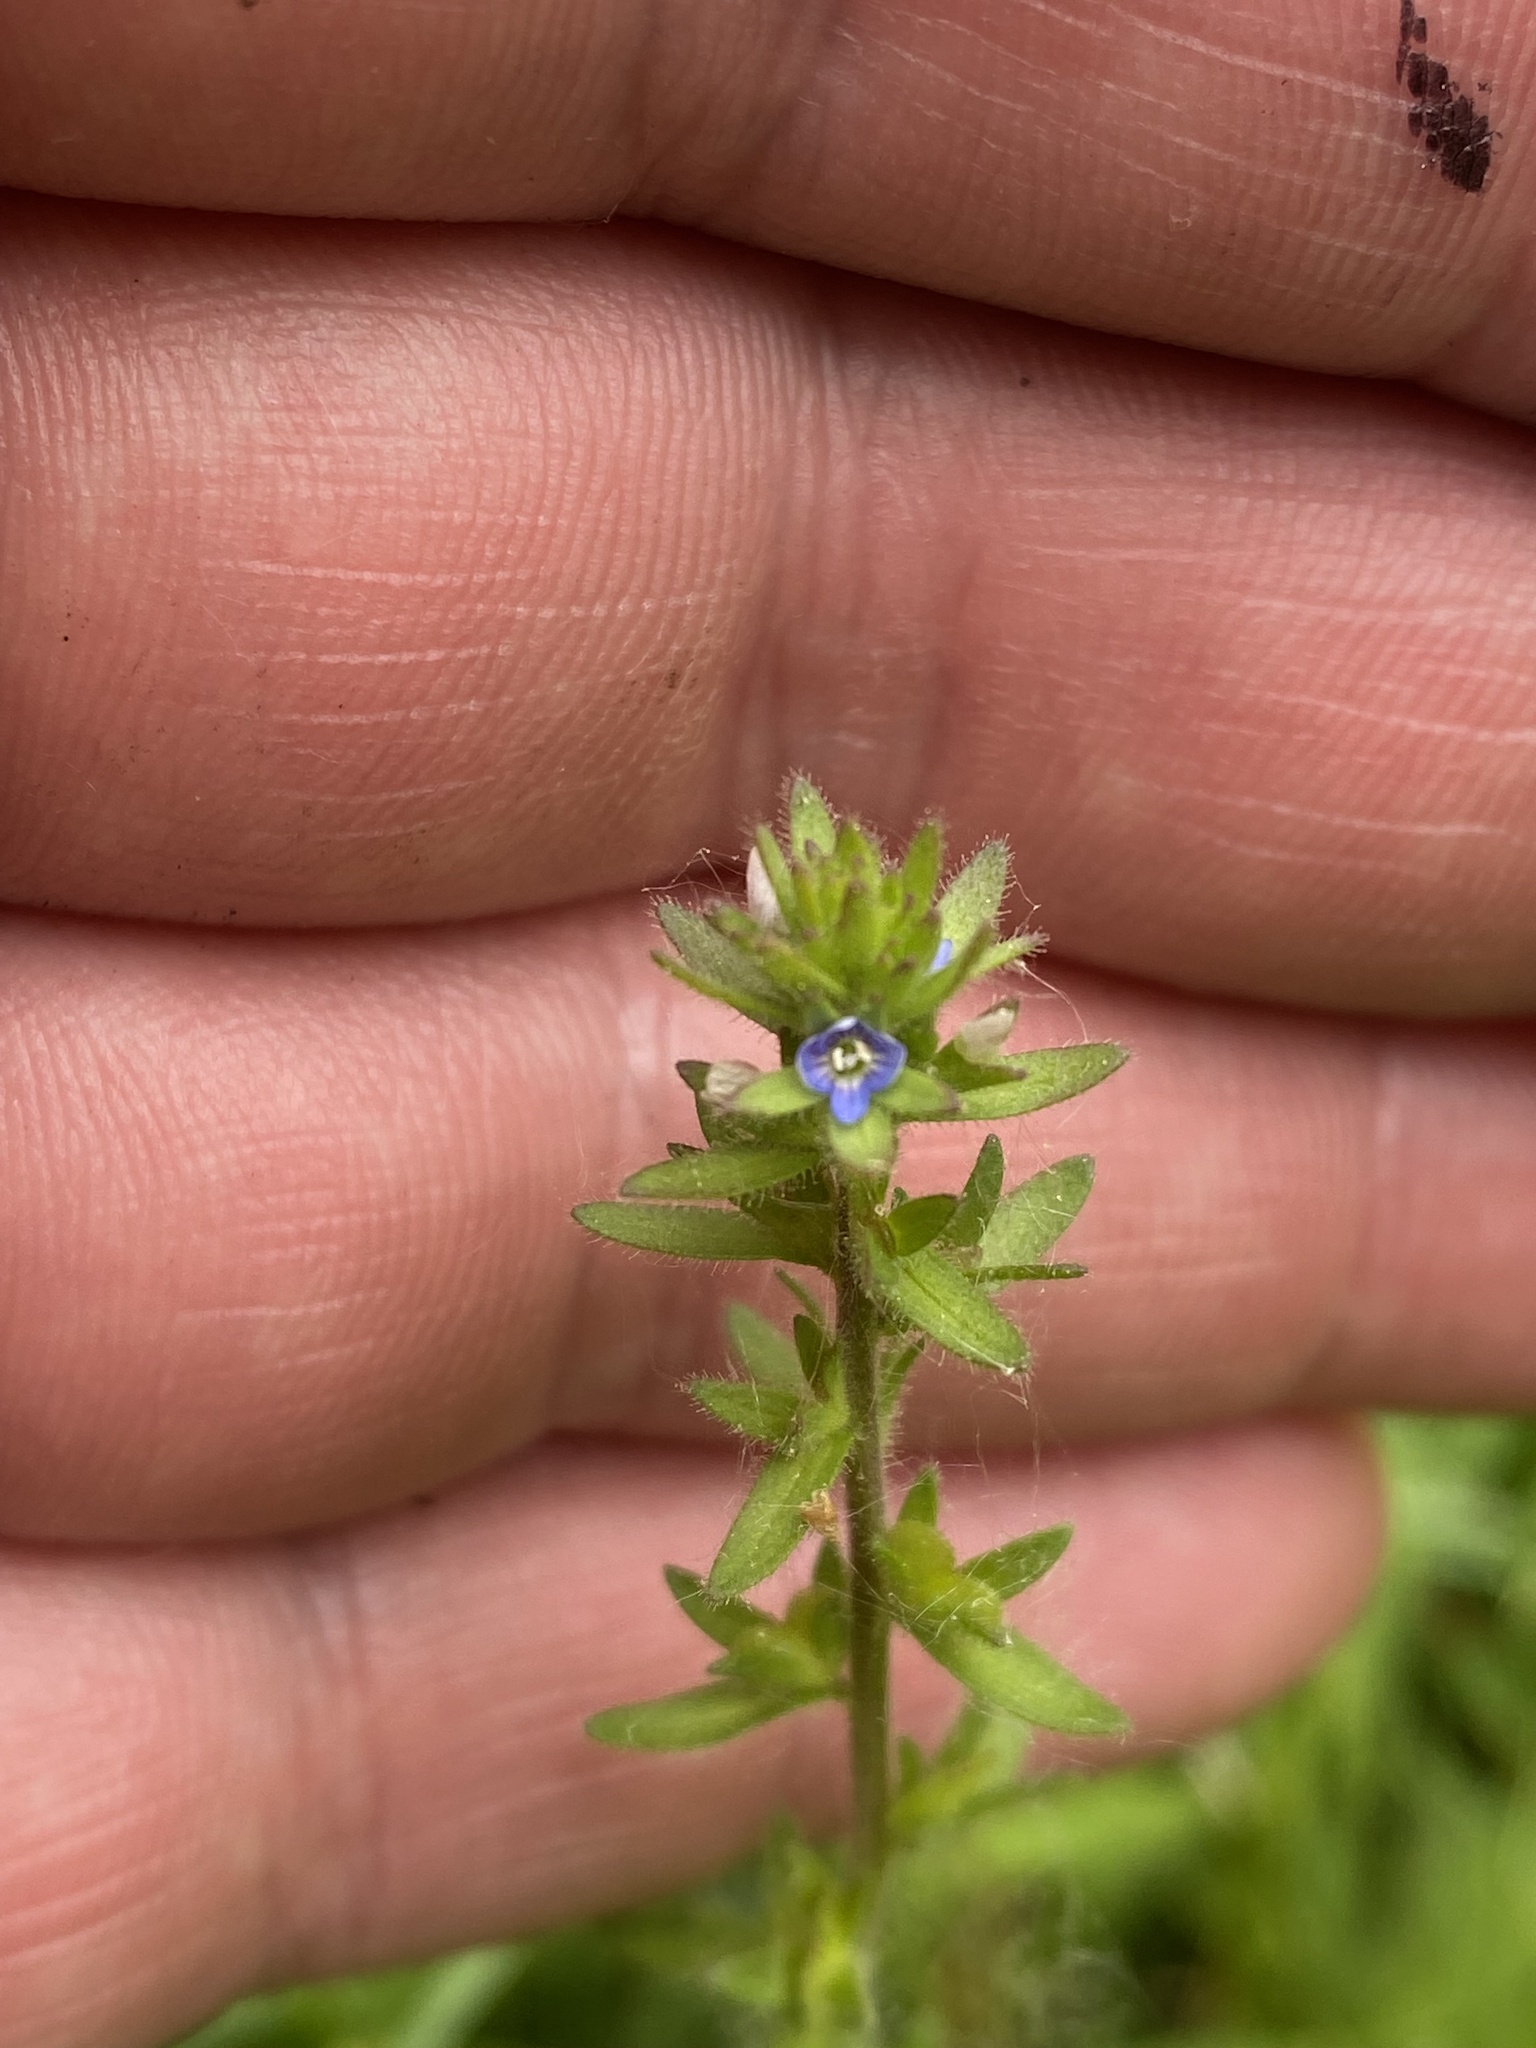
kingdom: Plantae
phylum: Tracheophyta
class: Magnoliopsida
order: Lamiales
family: Plantaginaceae
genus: Veronica
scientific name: Veronica arvensis
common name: Corn speedwell
